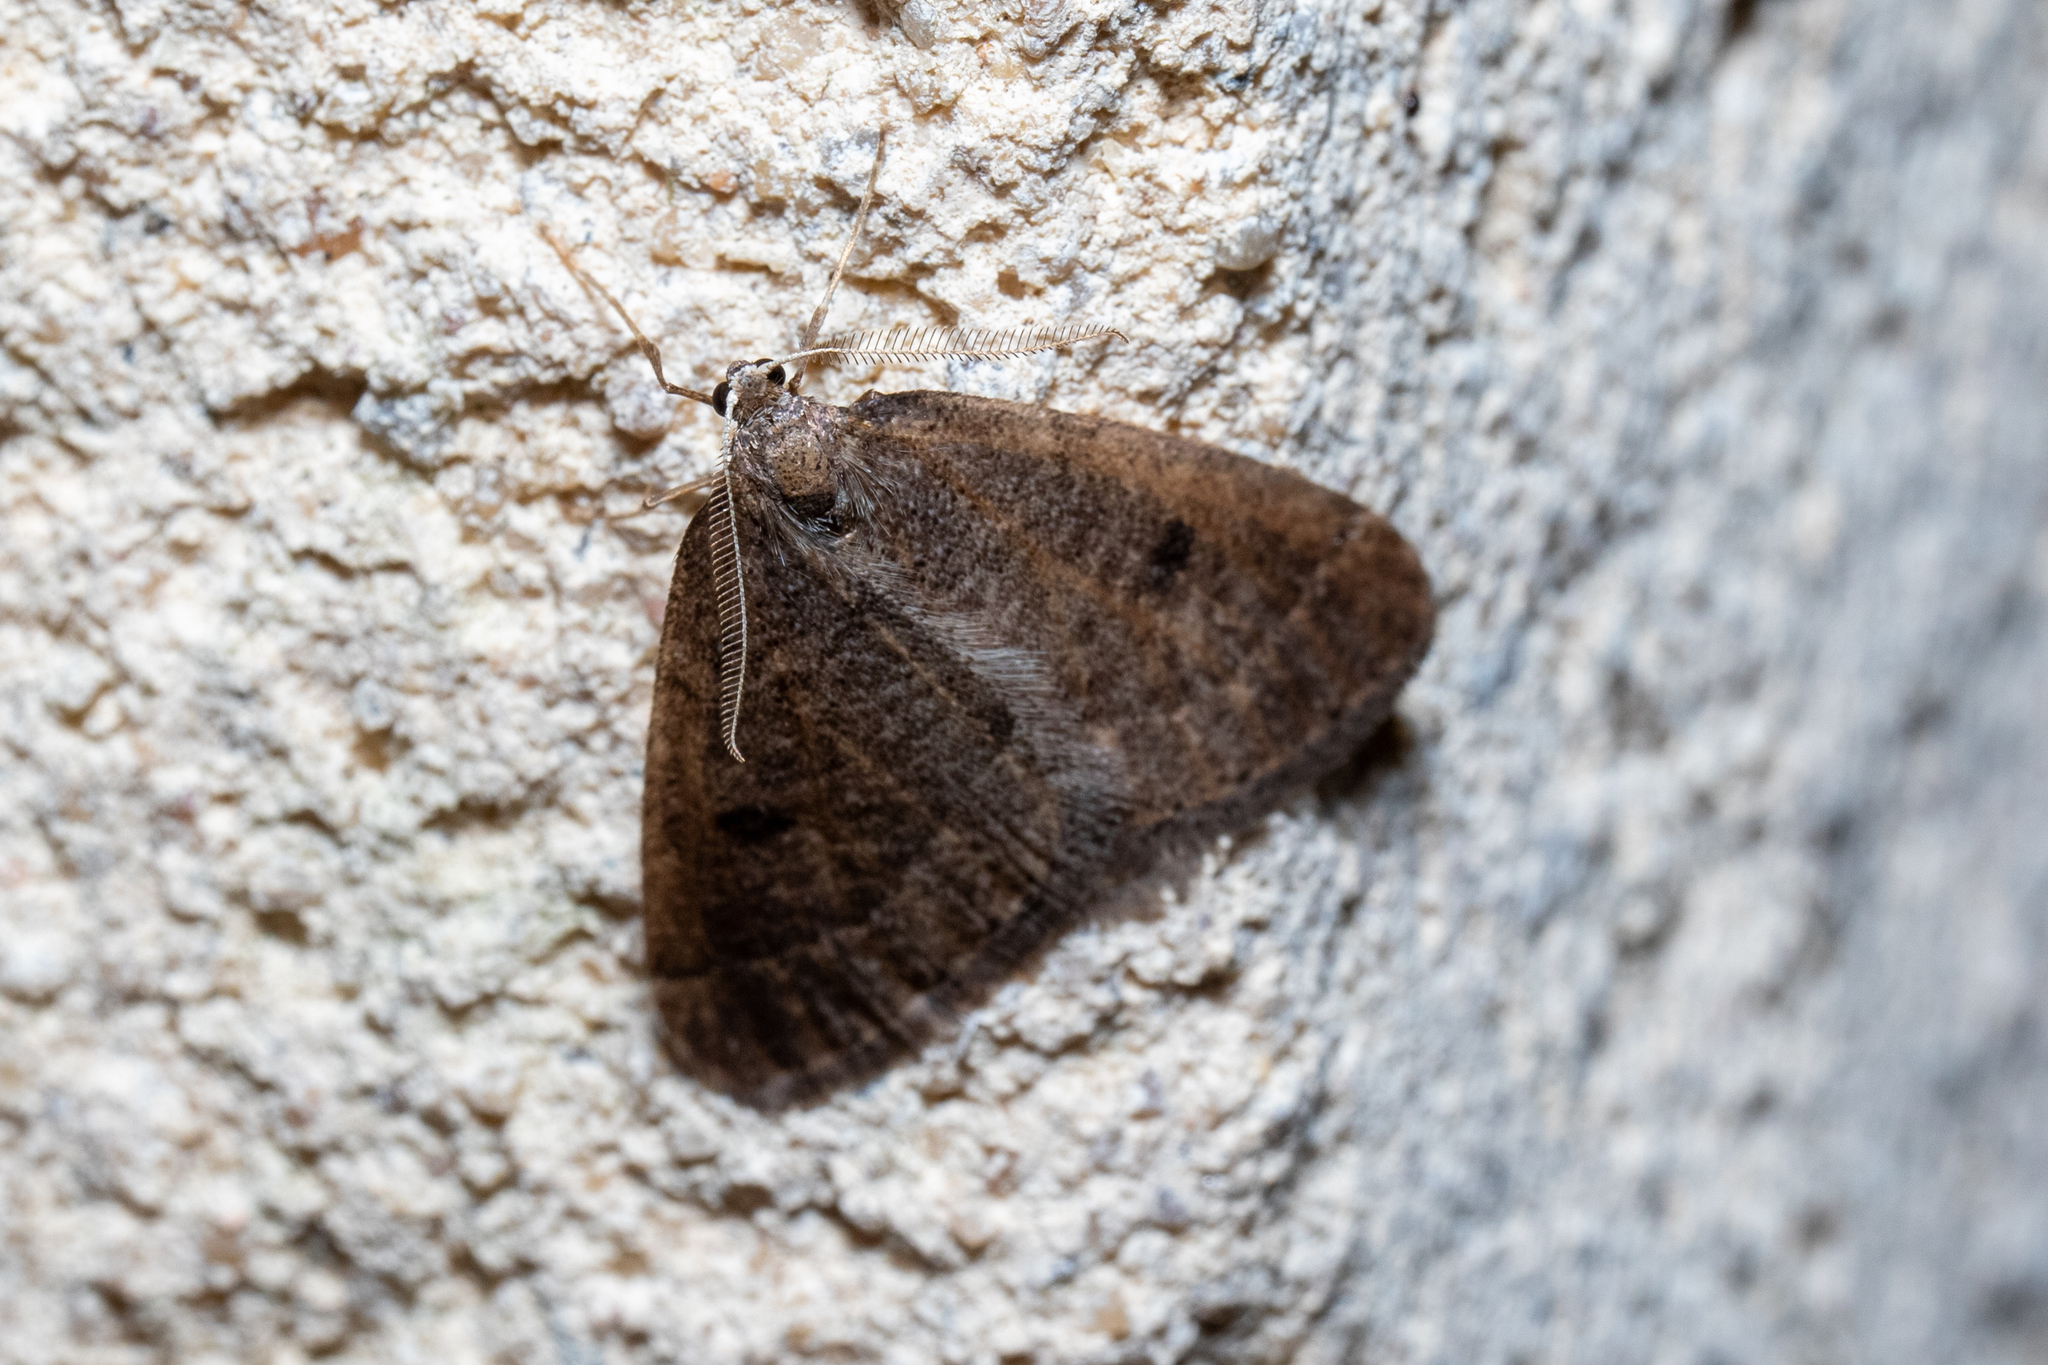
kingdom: Animalia
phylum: Arthropoda
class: Insecta
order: Lepidoptera
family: Geometridae
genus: Theria
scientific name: Theria primaria
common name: Early moth
